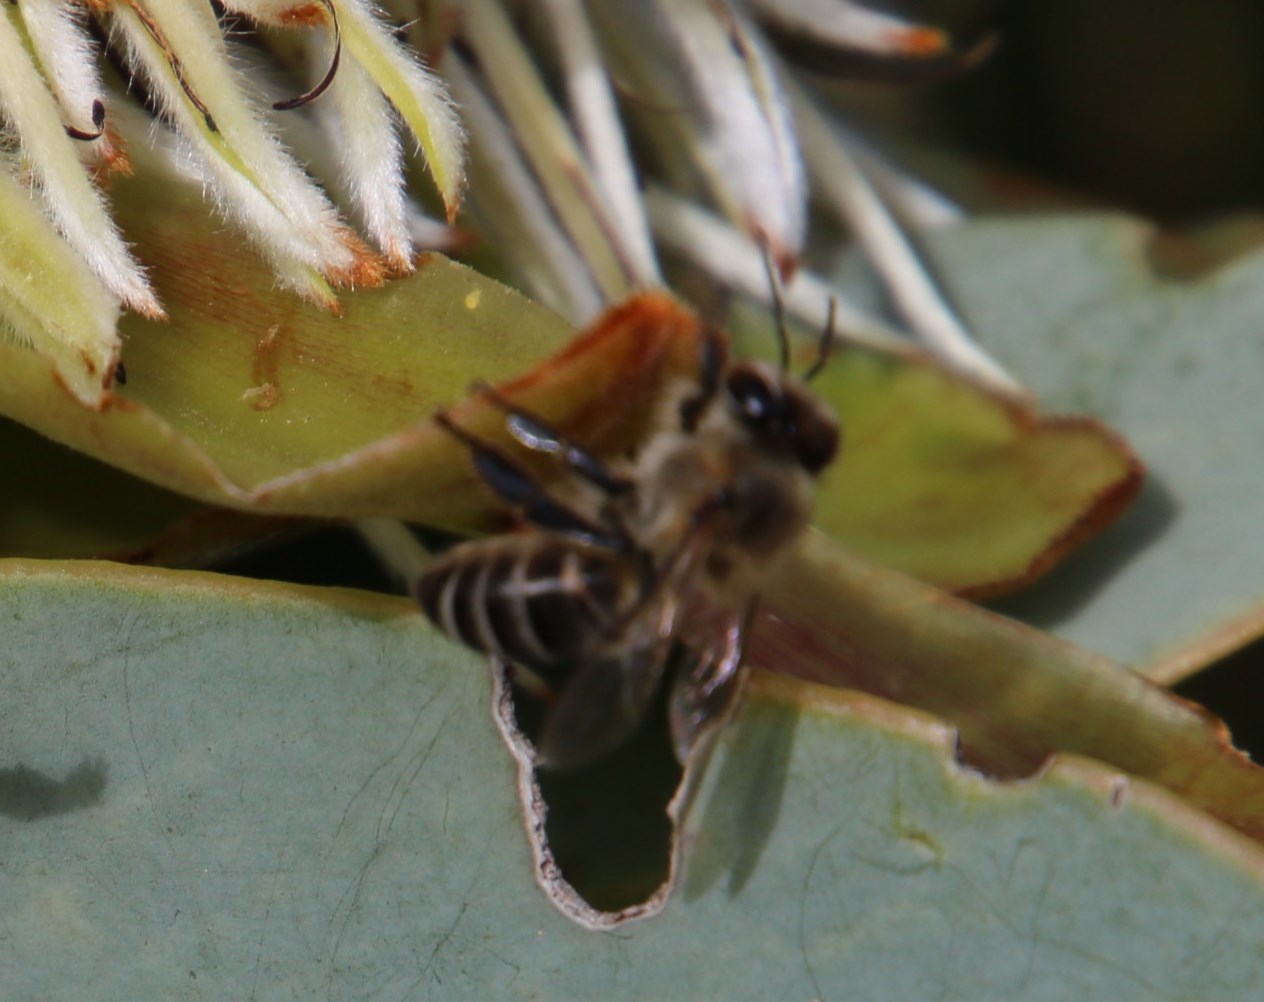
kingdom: Plantae
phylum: Tracheophyta
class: Magnoliopsida
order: Proteales
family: Proteaceae
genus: Protea
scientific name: Protea nitida
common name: Tree protea
